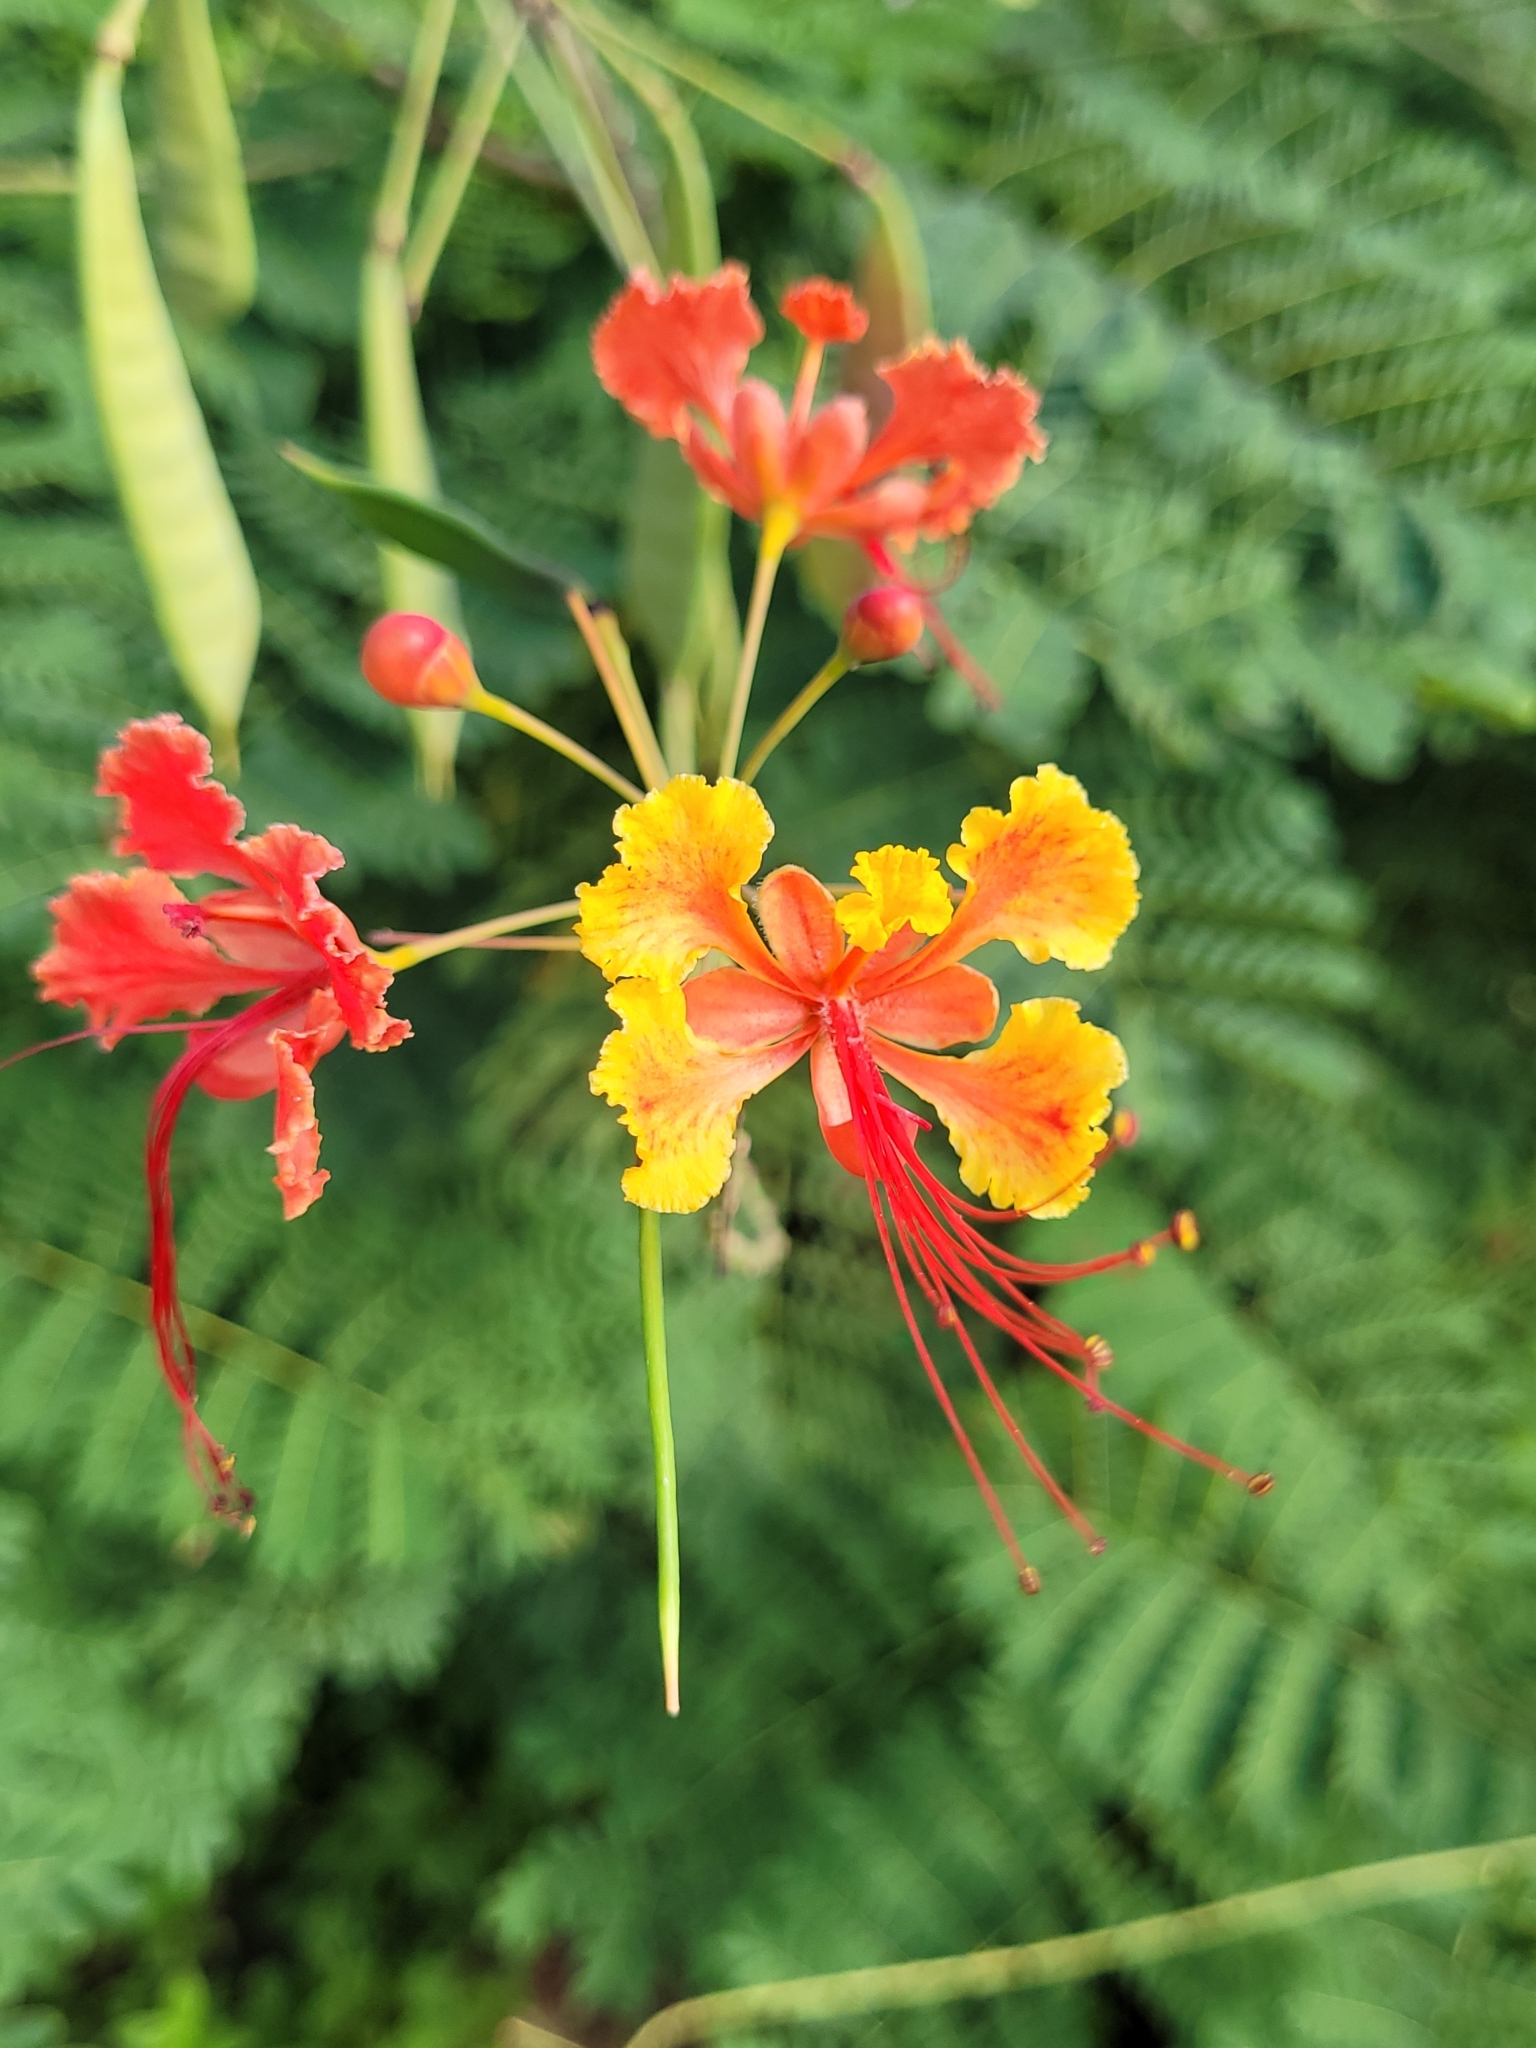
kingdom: Plantae
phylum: Tracheophyta
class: Magnoliopsida
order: Fabales
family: Fabaceae
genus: Caesalpinia
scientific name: Caesalpinia pulcherrima
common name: Pride-of-barbados
